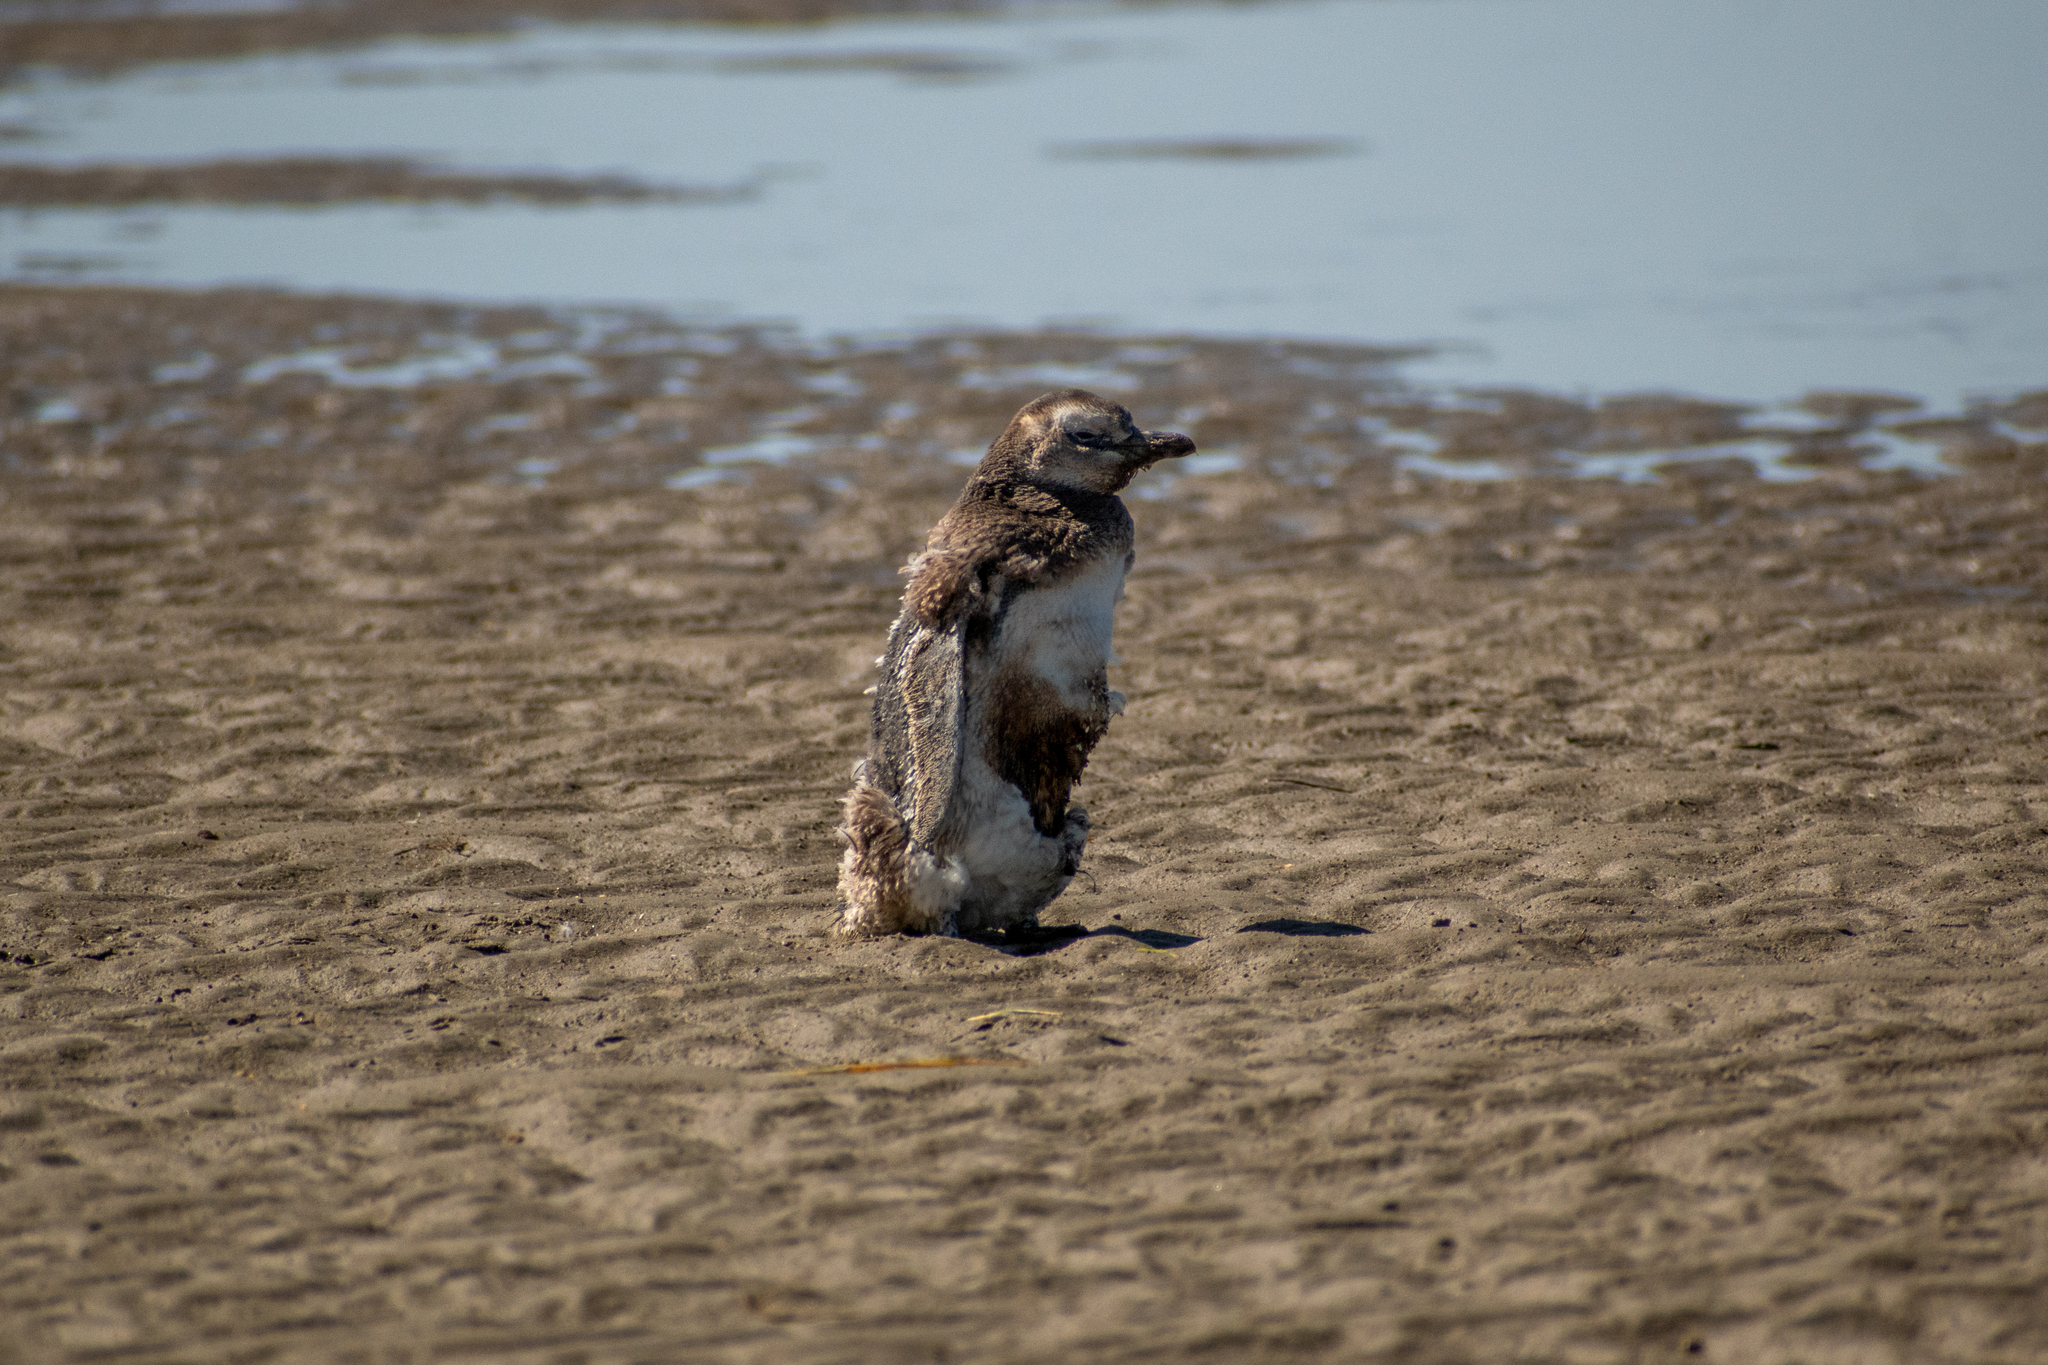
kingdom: Animalia
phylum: Chordata
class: Aves
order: Sphenisciformes
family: Spheniscidae
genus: Spheniscus
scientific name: Spheniscus magellanicus
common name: Magellanic penguin
